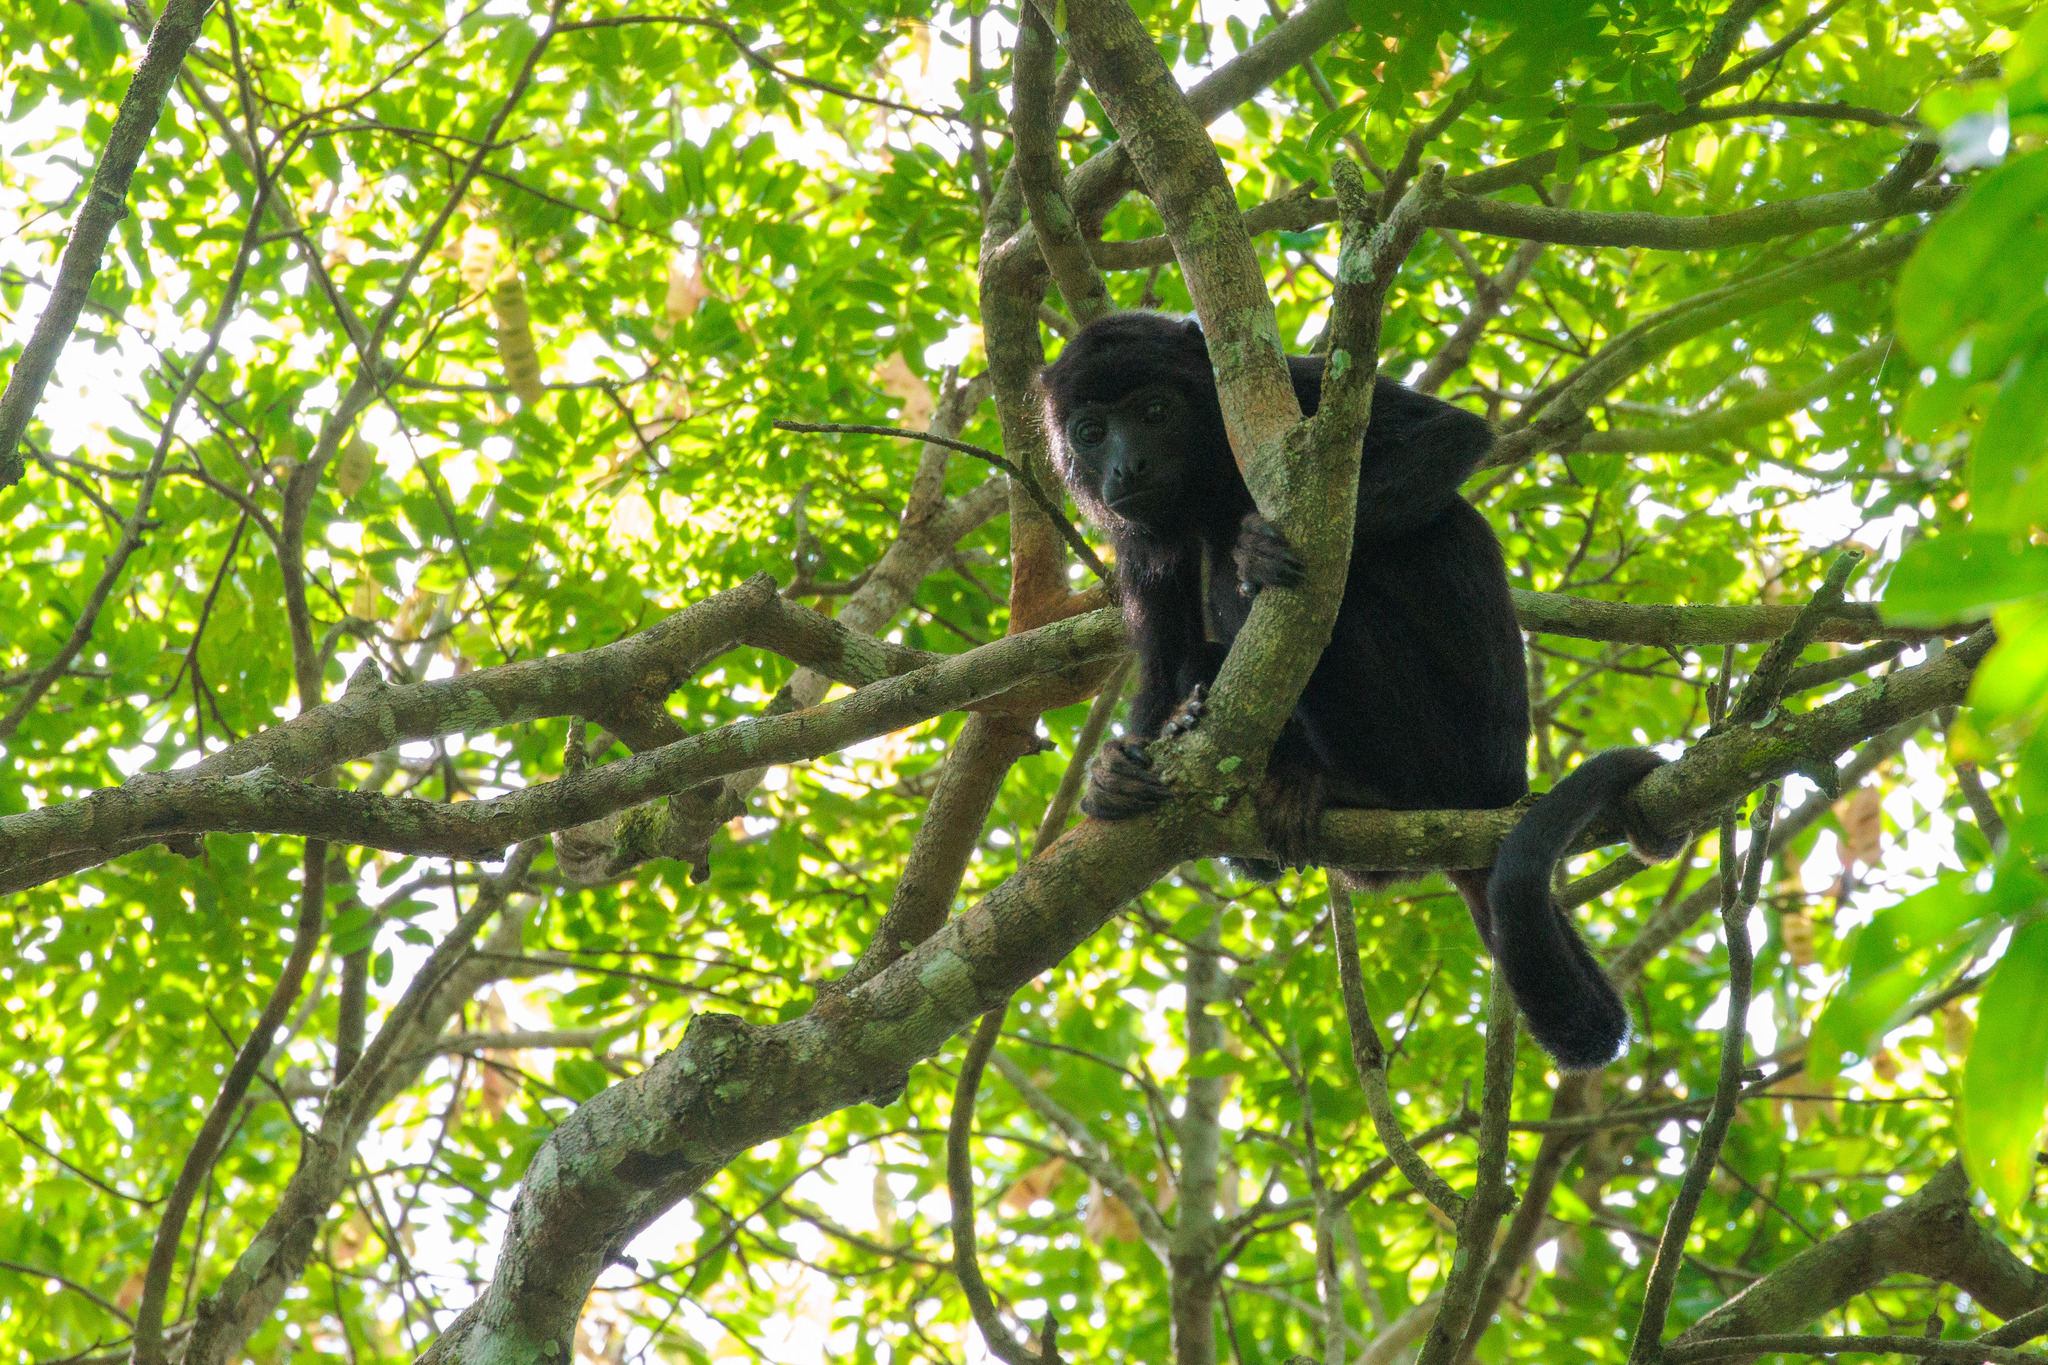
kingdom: Animalia
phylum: Chordata
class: Mammalia
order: Primates
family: Atelidae
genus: Alouatta
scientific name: Alouatta belzebul
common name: Red-handed howler
